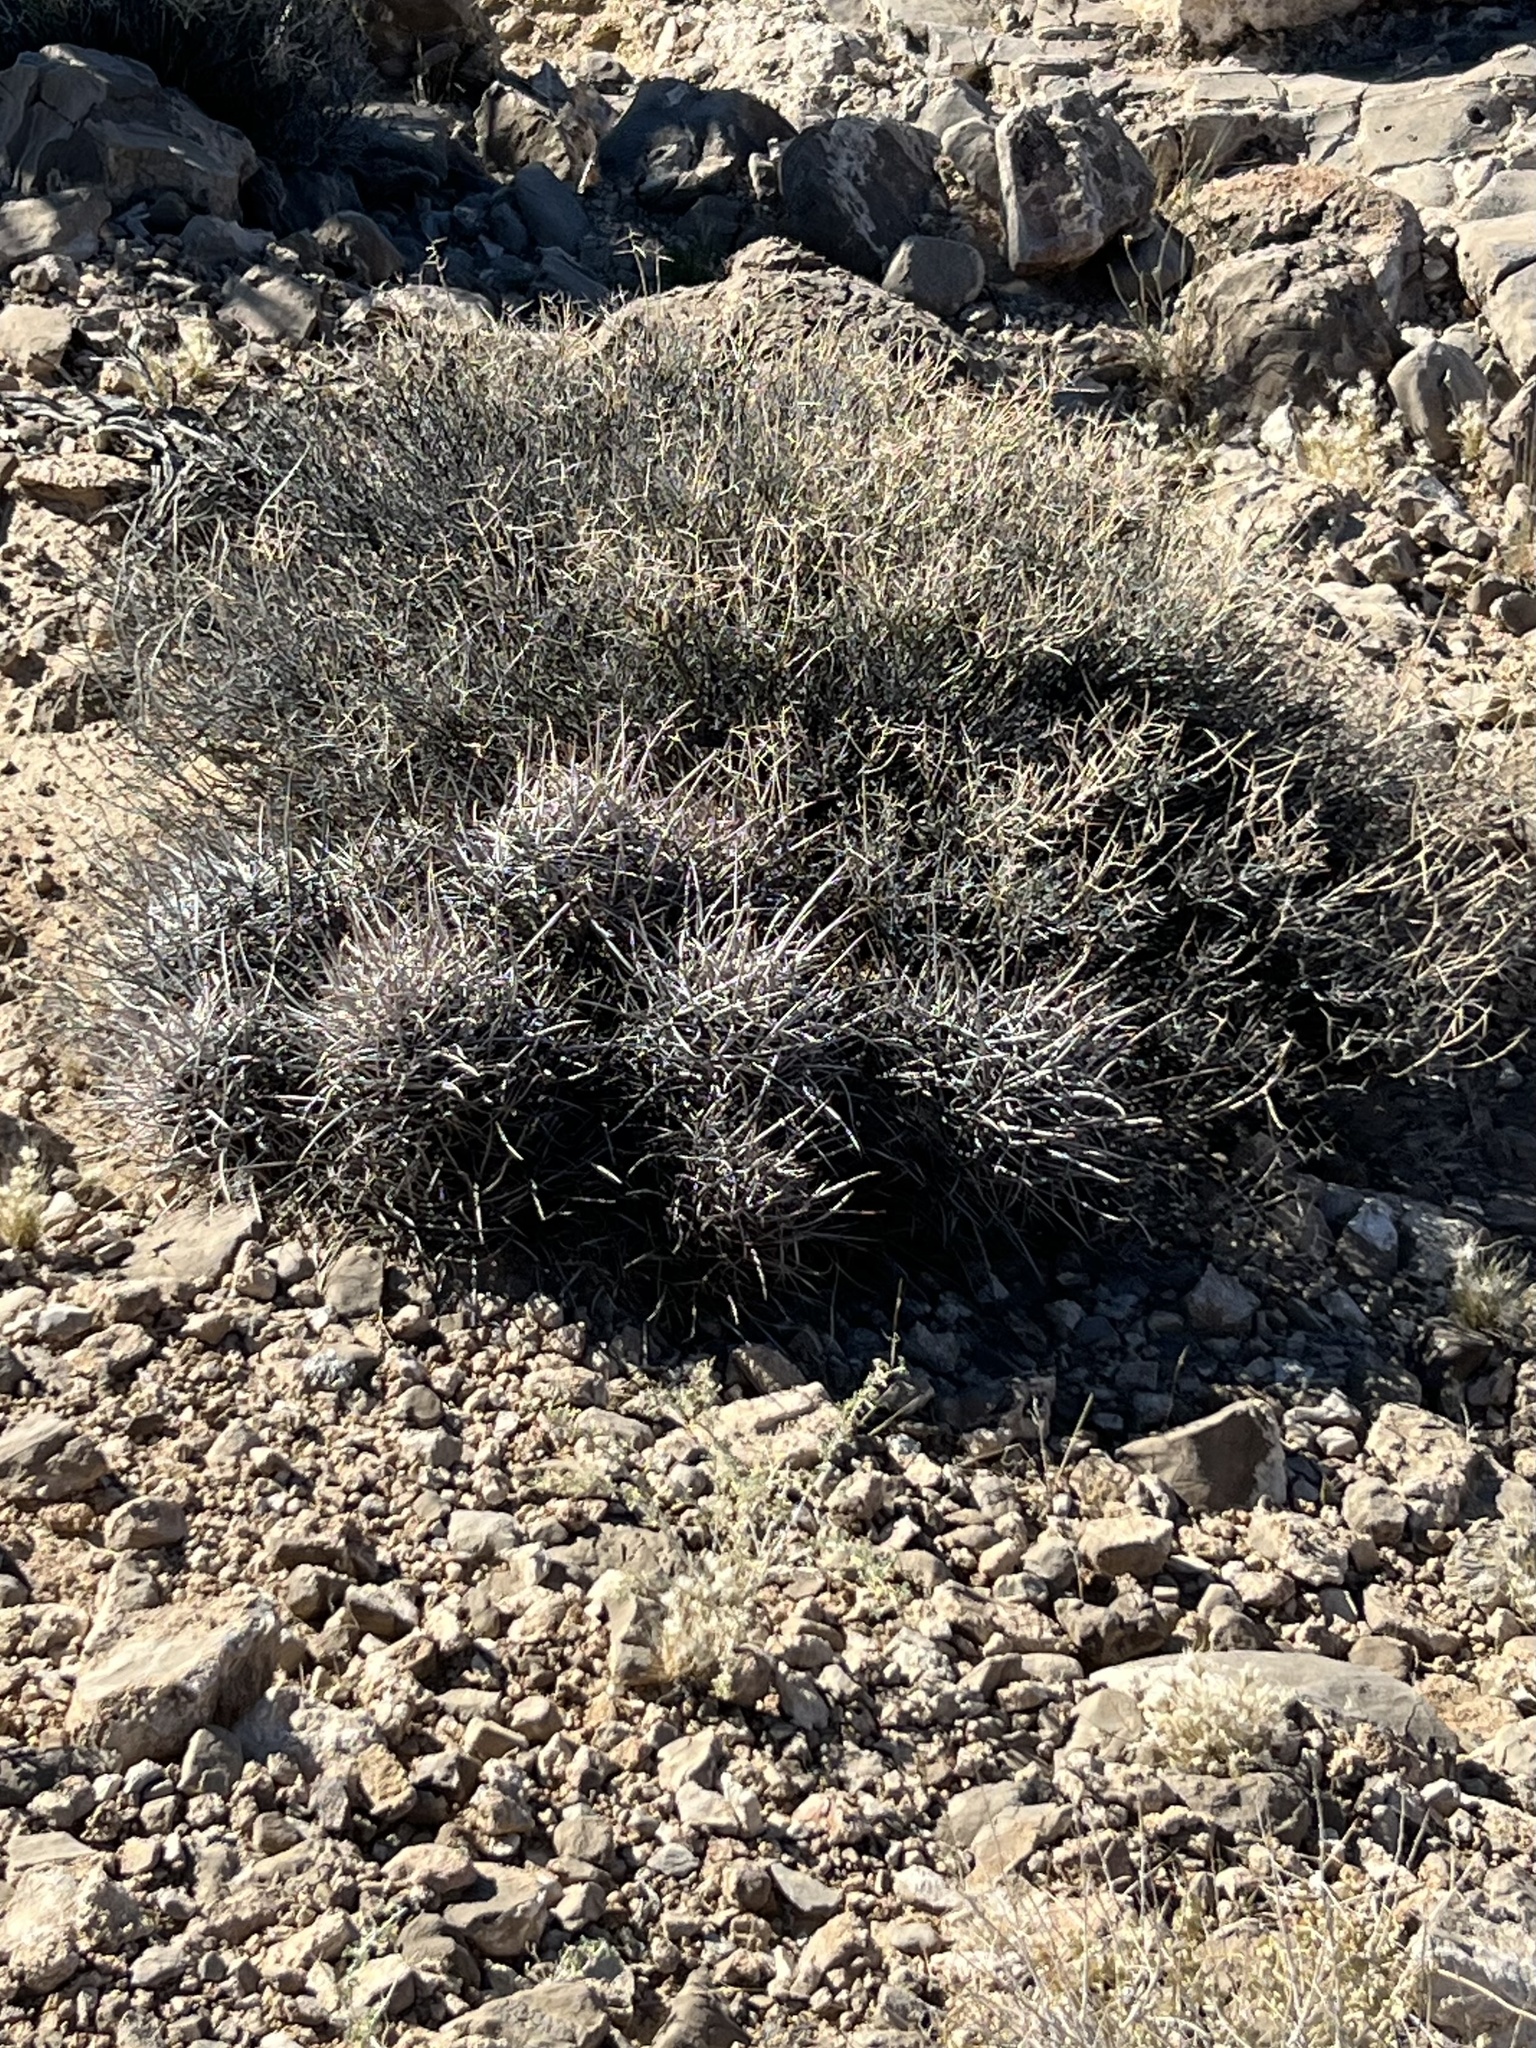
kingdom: Plantae
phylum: Tracheophyta
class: Magnoliopsida
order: Caryophyllales
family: Cactaceae
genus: Echinocactus
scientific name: Echinocactus polycephalus
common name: Cottontop cactus
